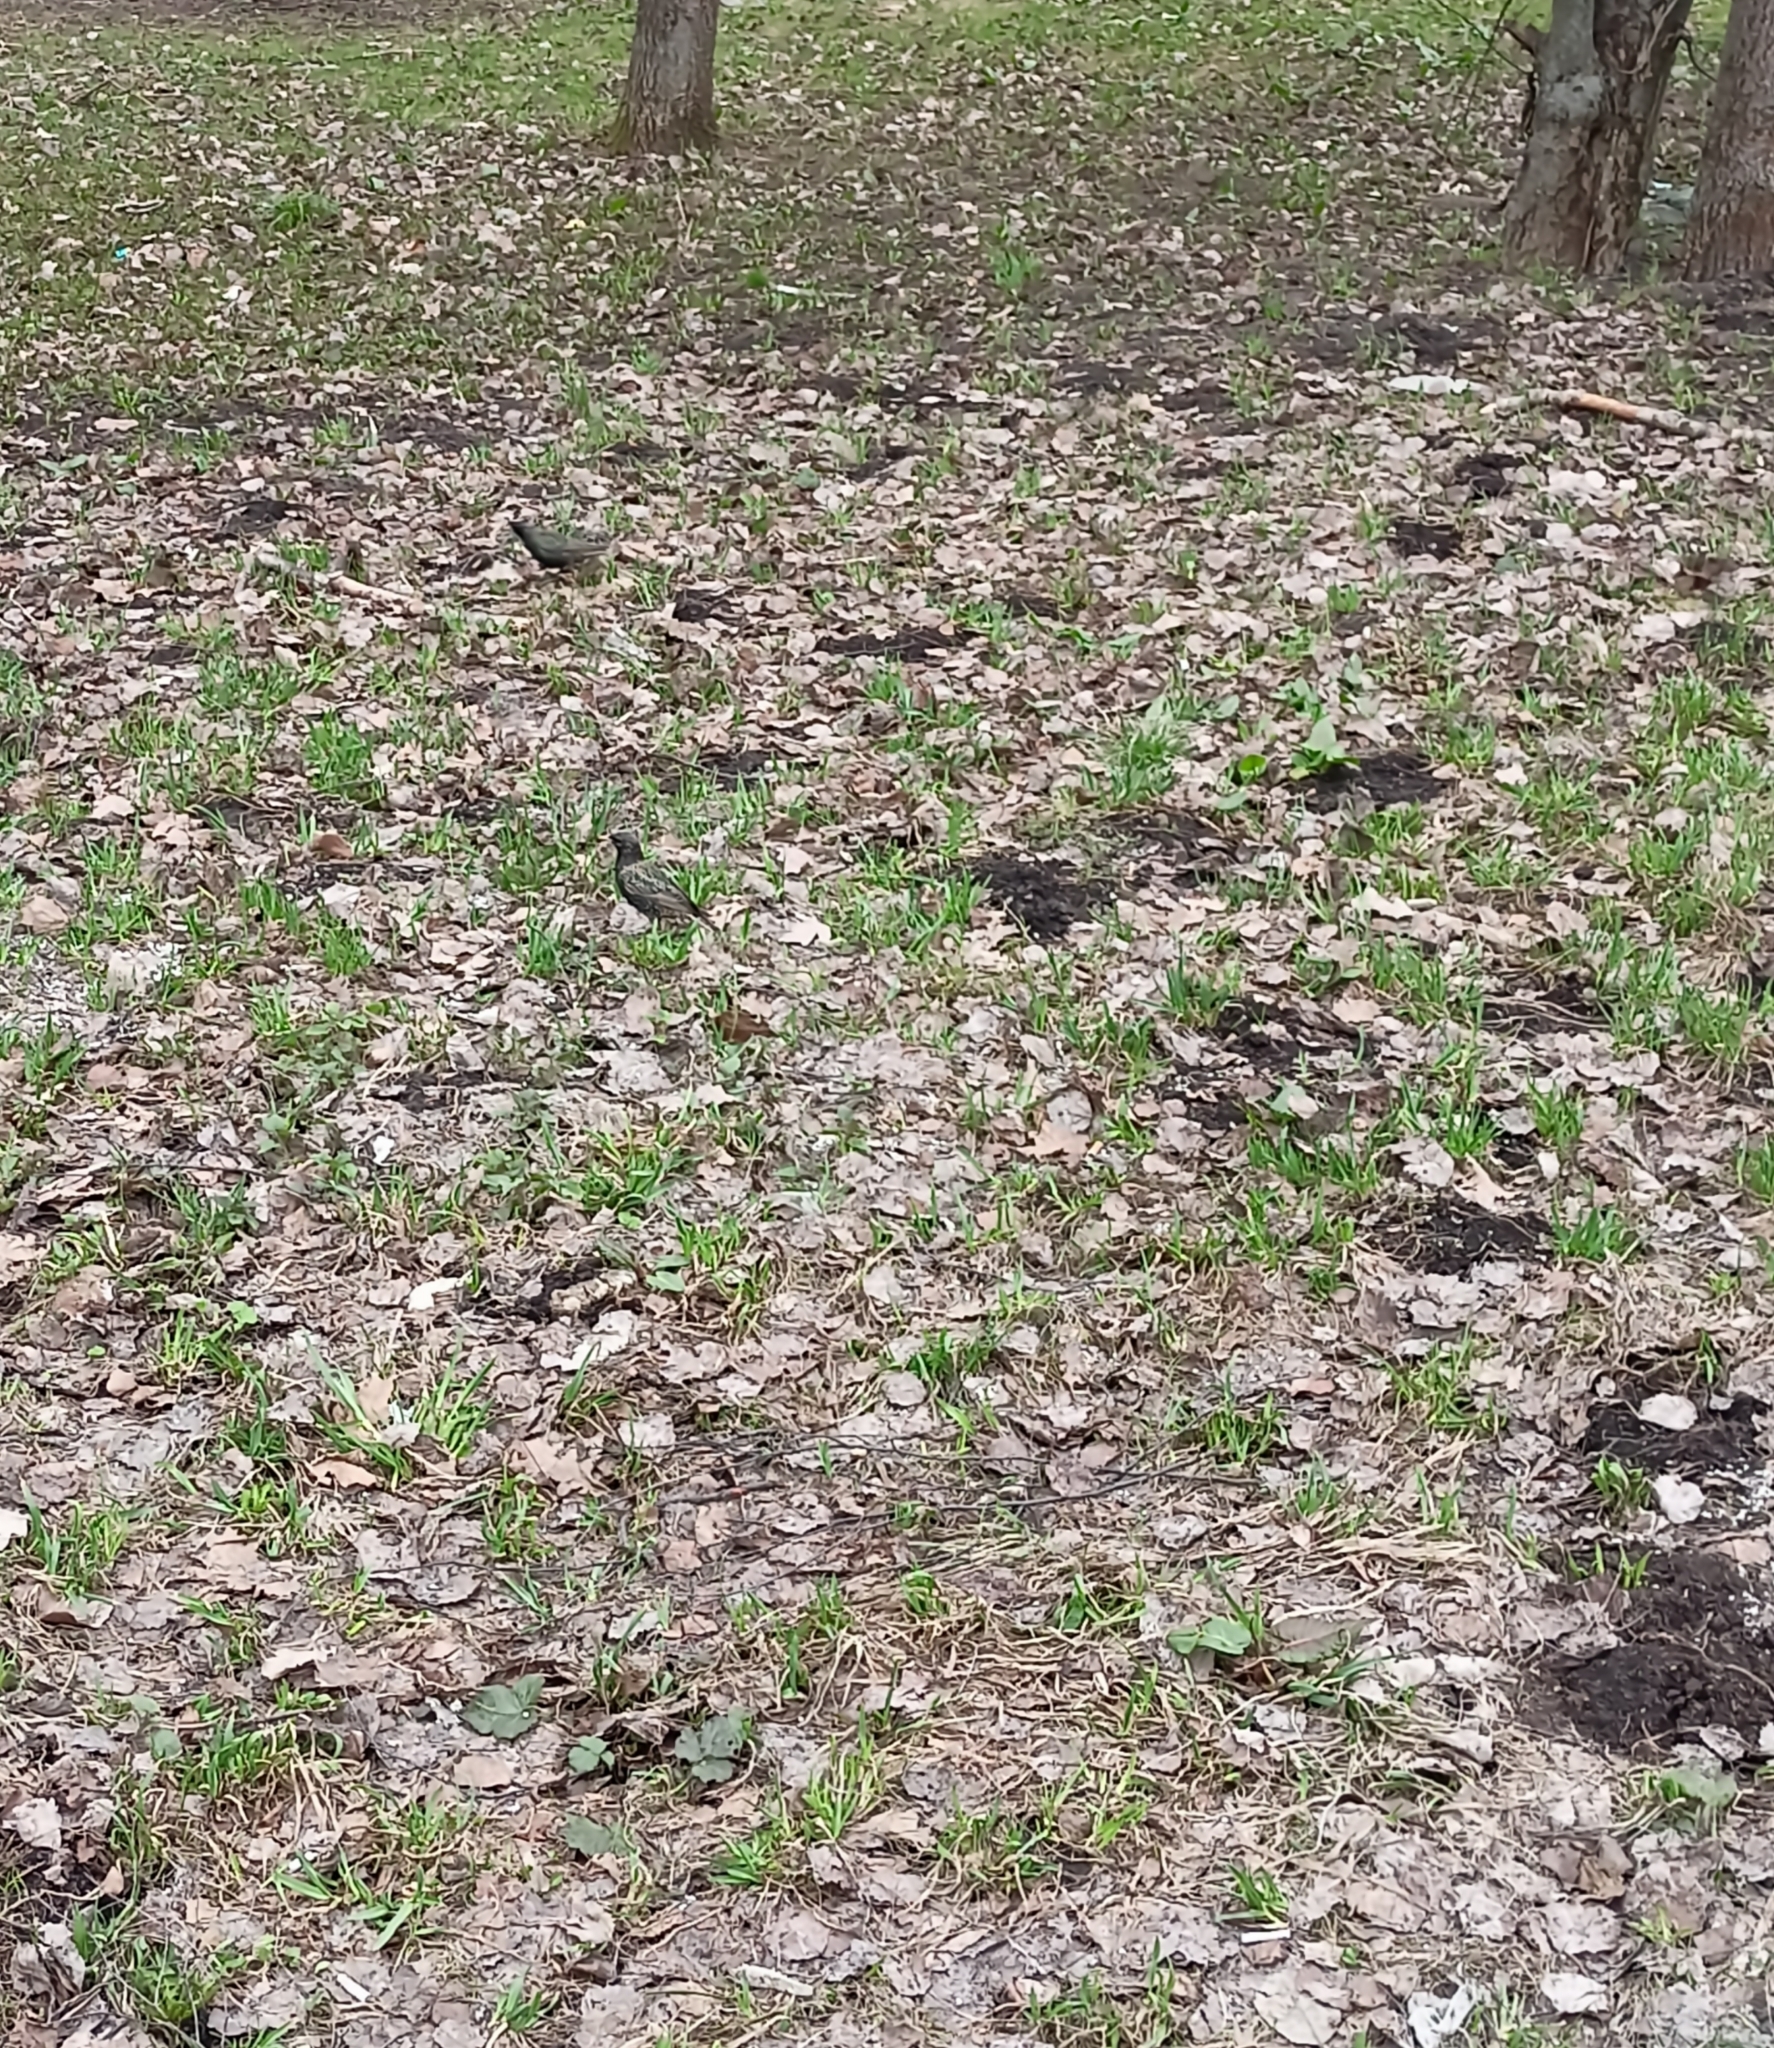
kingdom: Animalia
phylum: Chordata
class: Aves
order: Passeriformes
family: Sturnidae
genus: Sturnus
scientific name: Sturnus vulgaris
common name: Common starling
